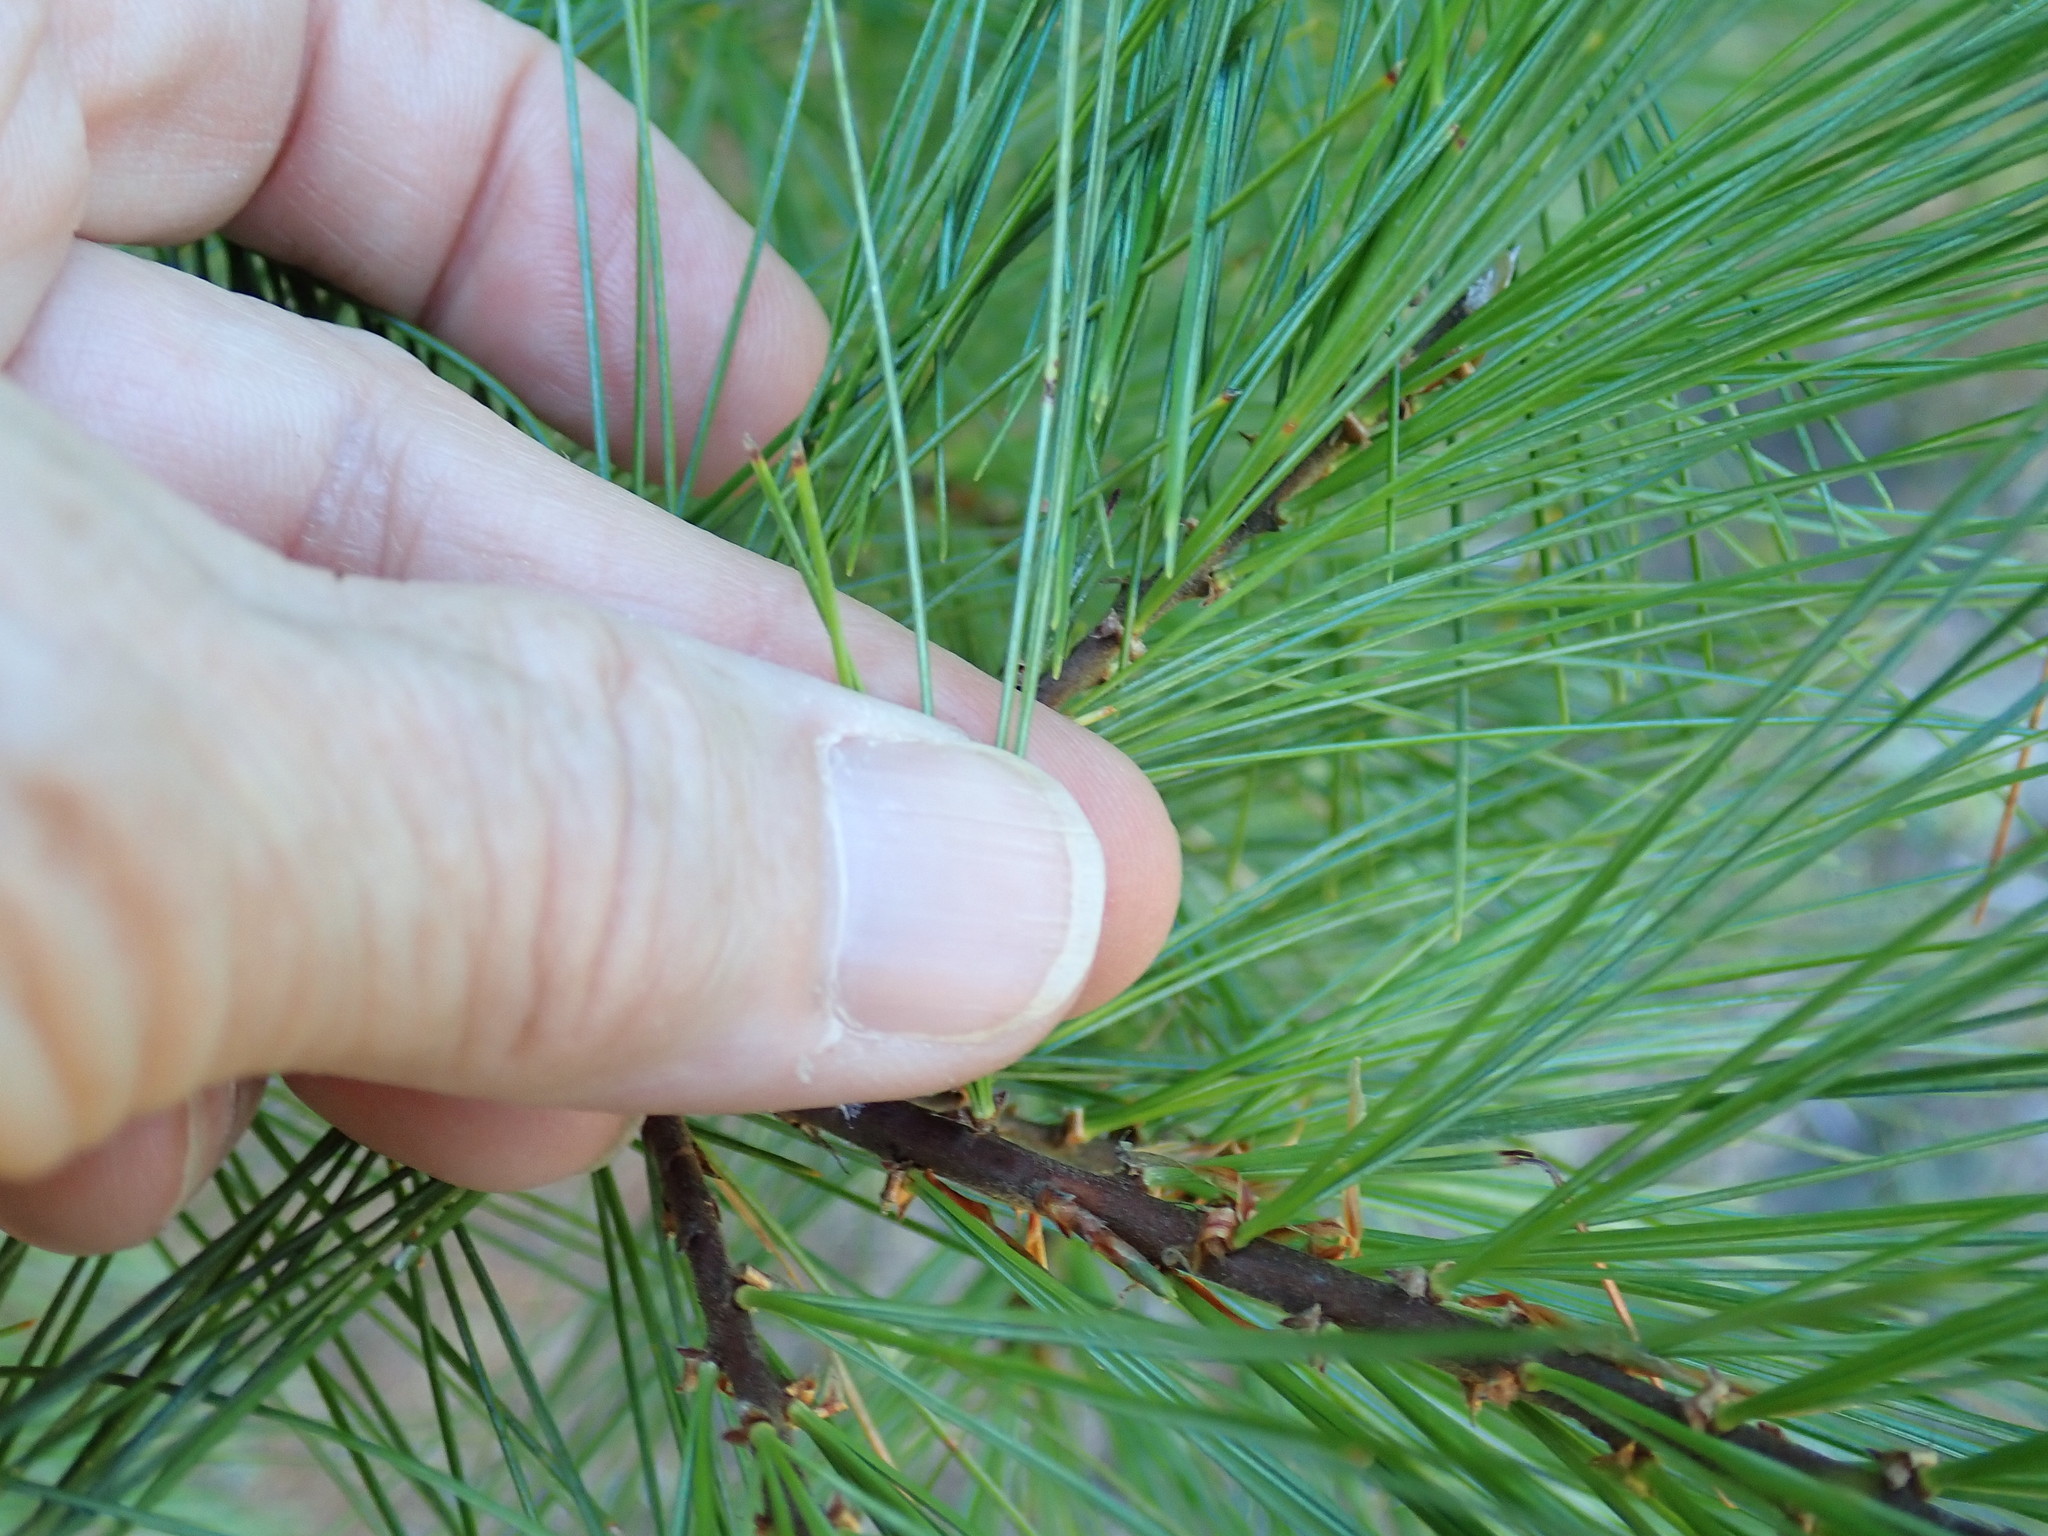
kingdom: Plantae
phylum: Tracheophyta
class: Pinopsida
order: Pinales
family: Pinaceae
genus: Pinus
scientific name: Pinus strobus
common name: Weymouth pine
